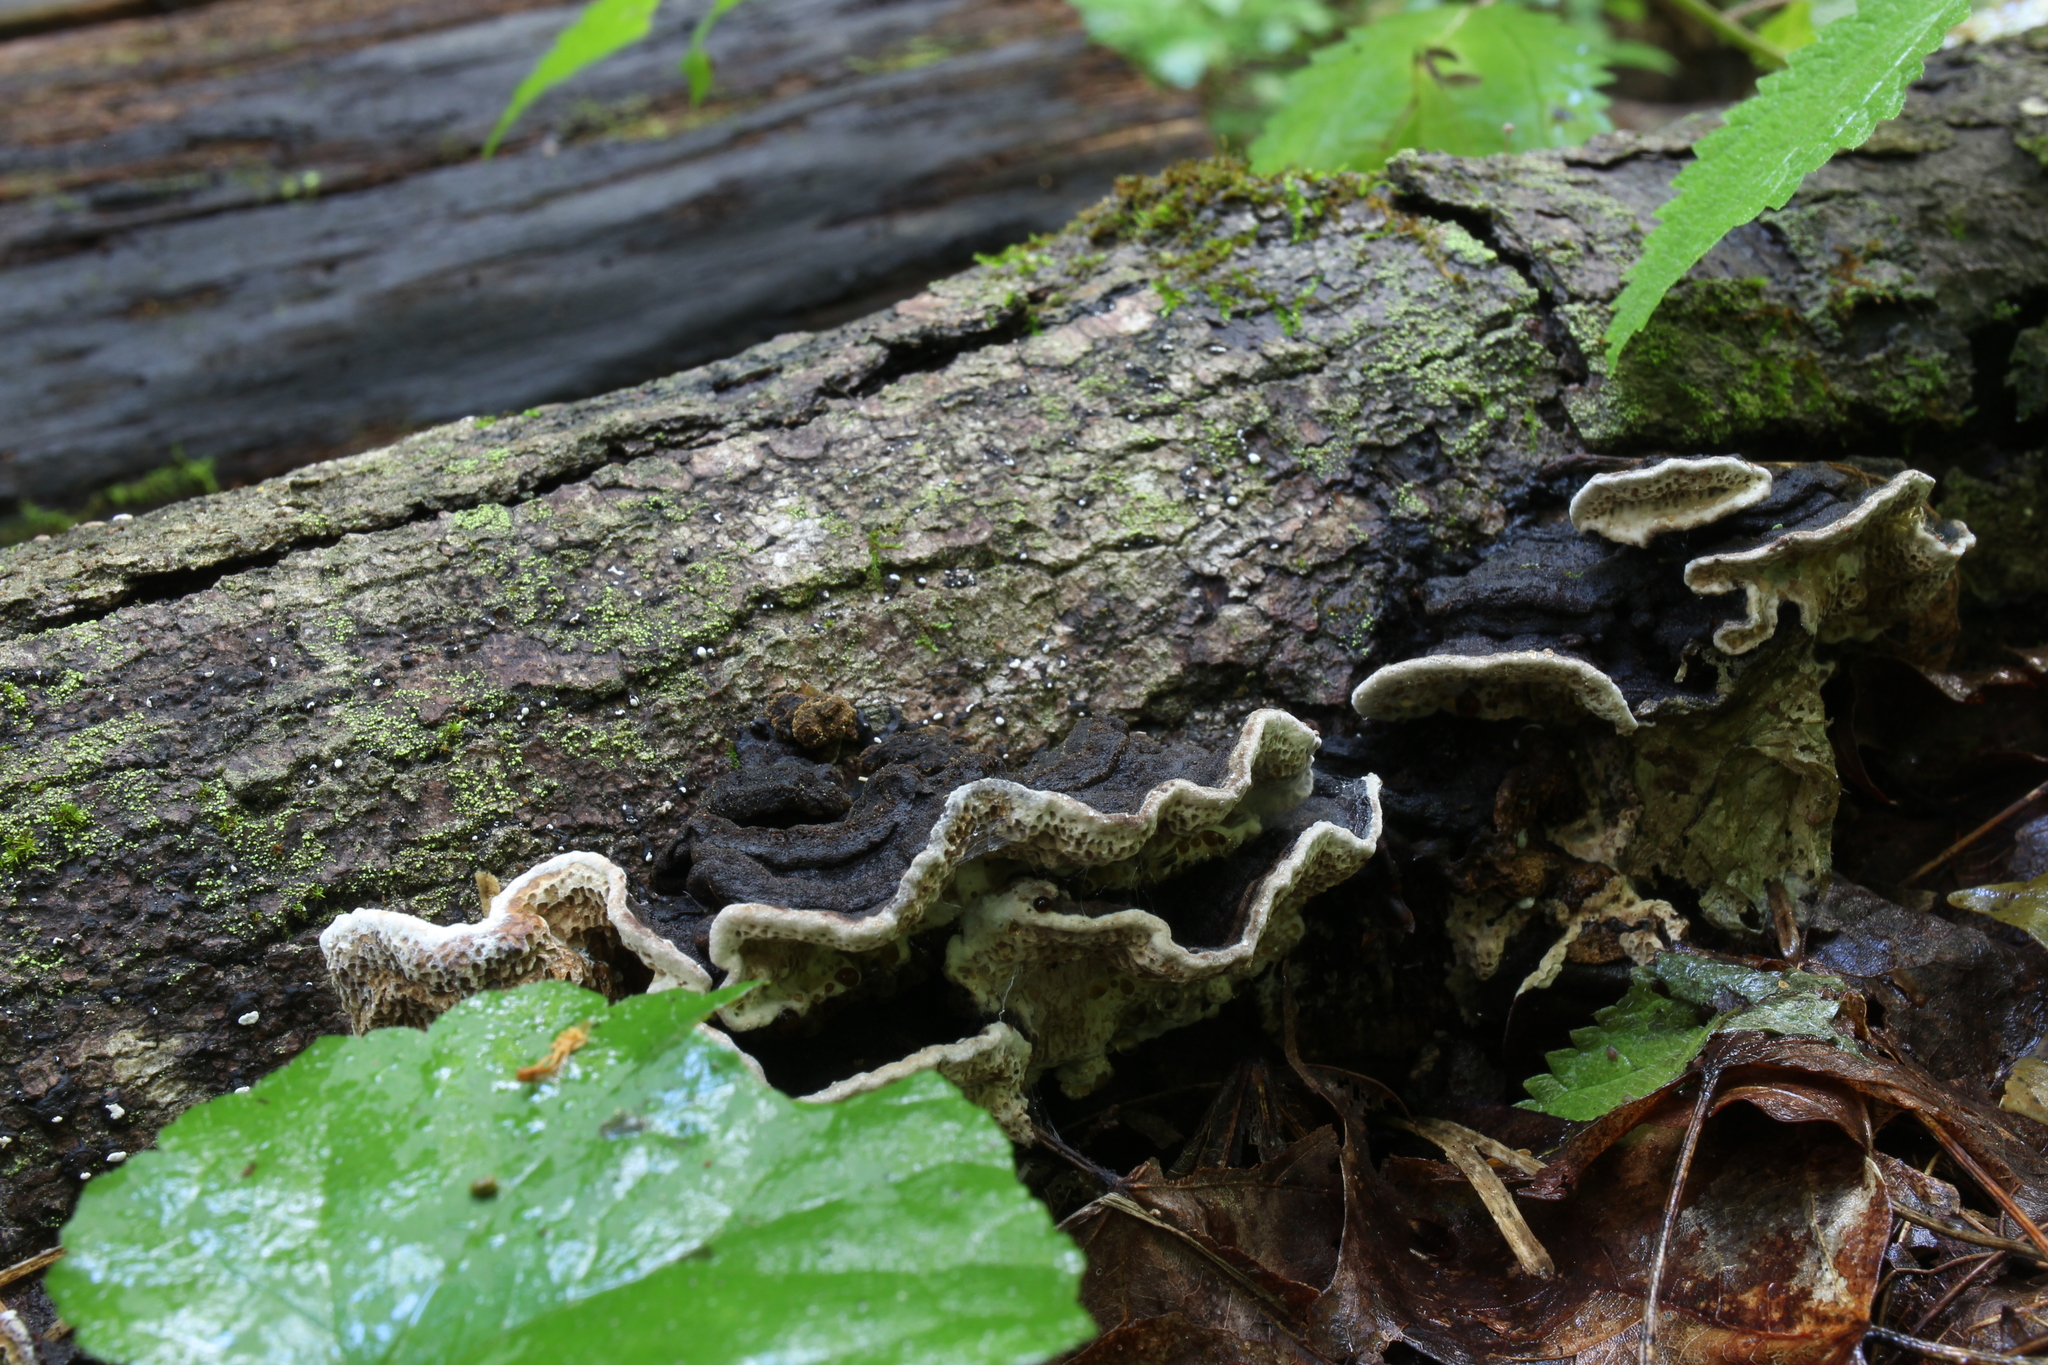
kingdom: Fungi
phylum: Basidiomycota
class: Agaricomycetes
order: Polyporales
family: Polyporaceae
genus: Podofomes
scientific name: Podofomes mollis
